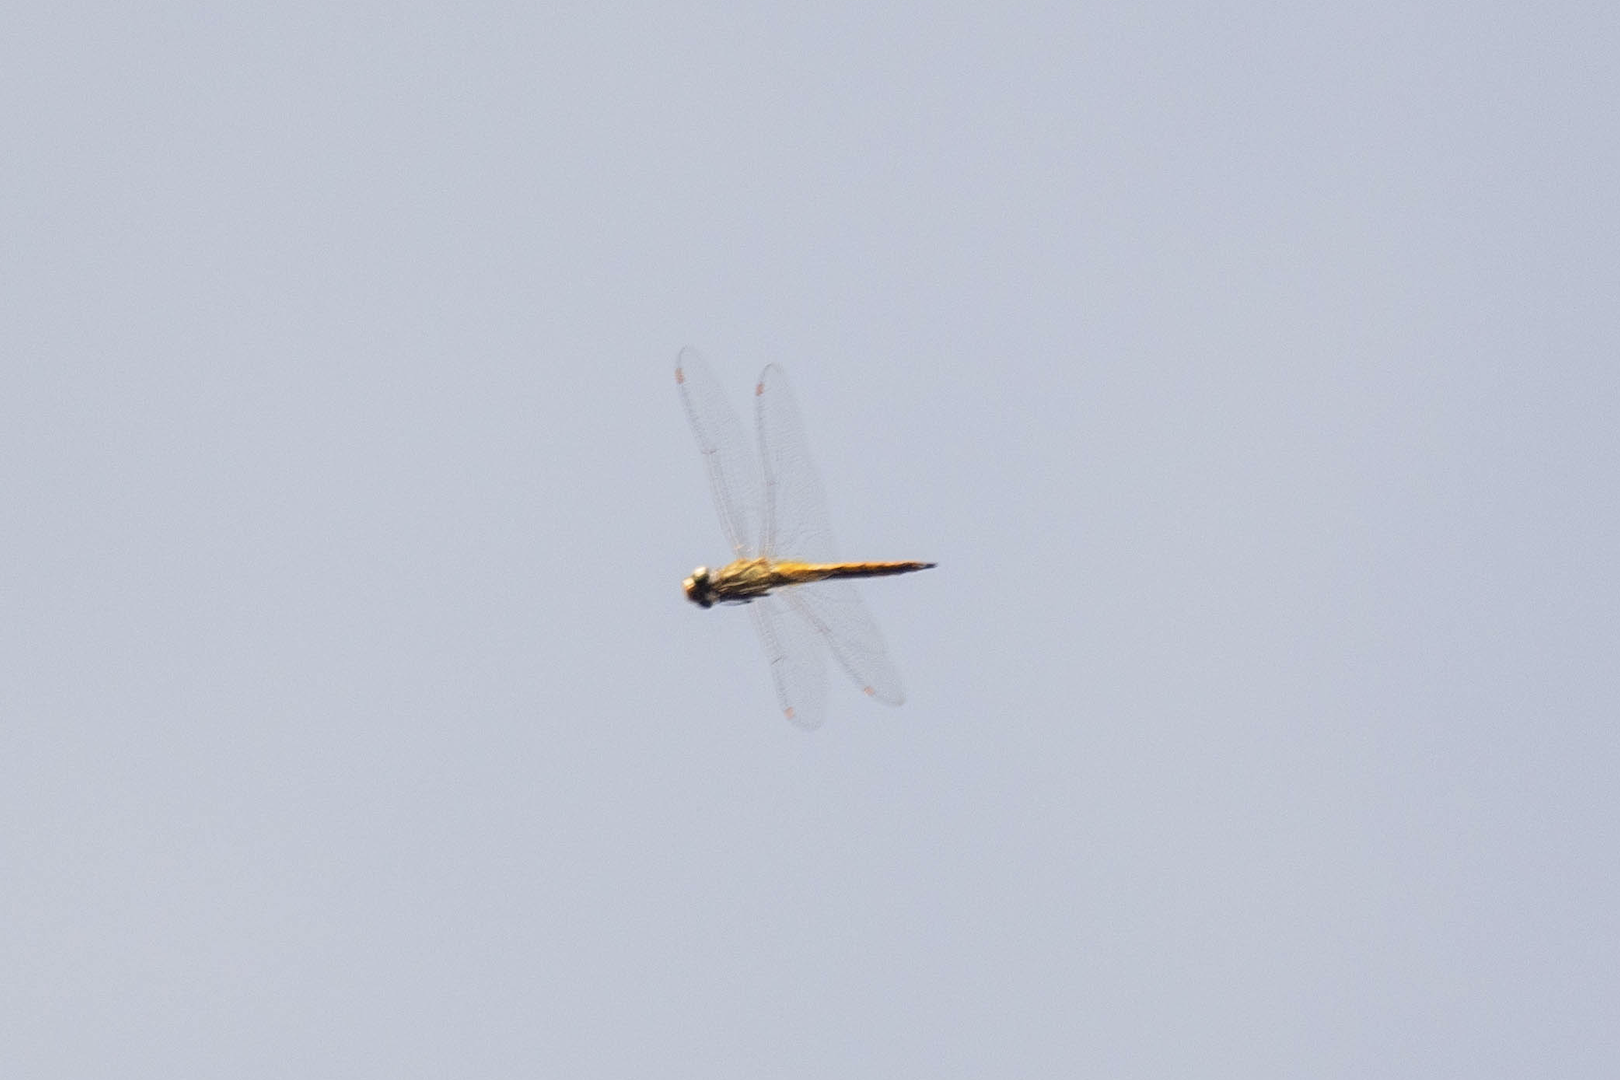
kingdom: Animalia
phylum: Arthropoda
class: Insecta
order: Odonata
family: Libellulidae
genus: Pantala
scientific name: Pantala flavescens
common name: Wandering glider
